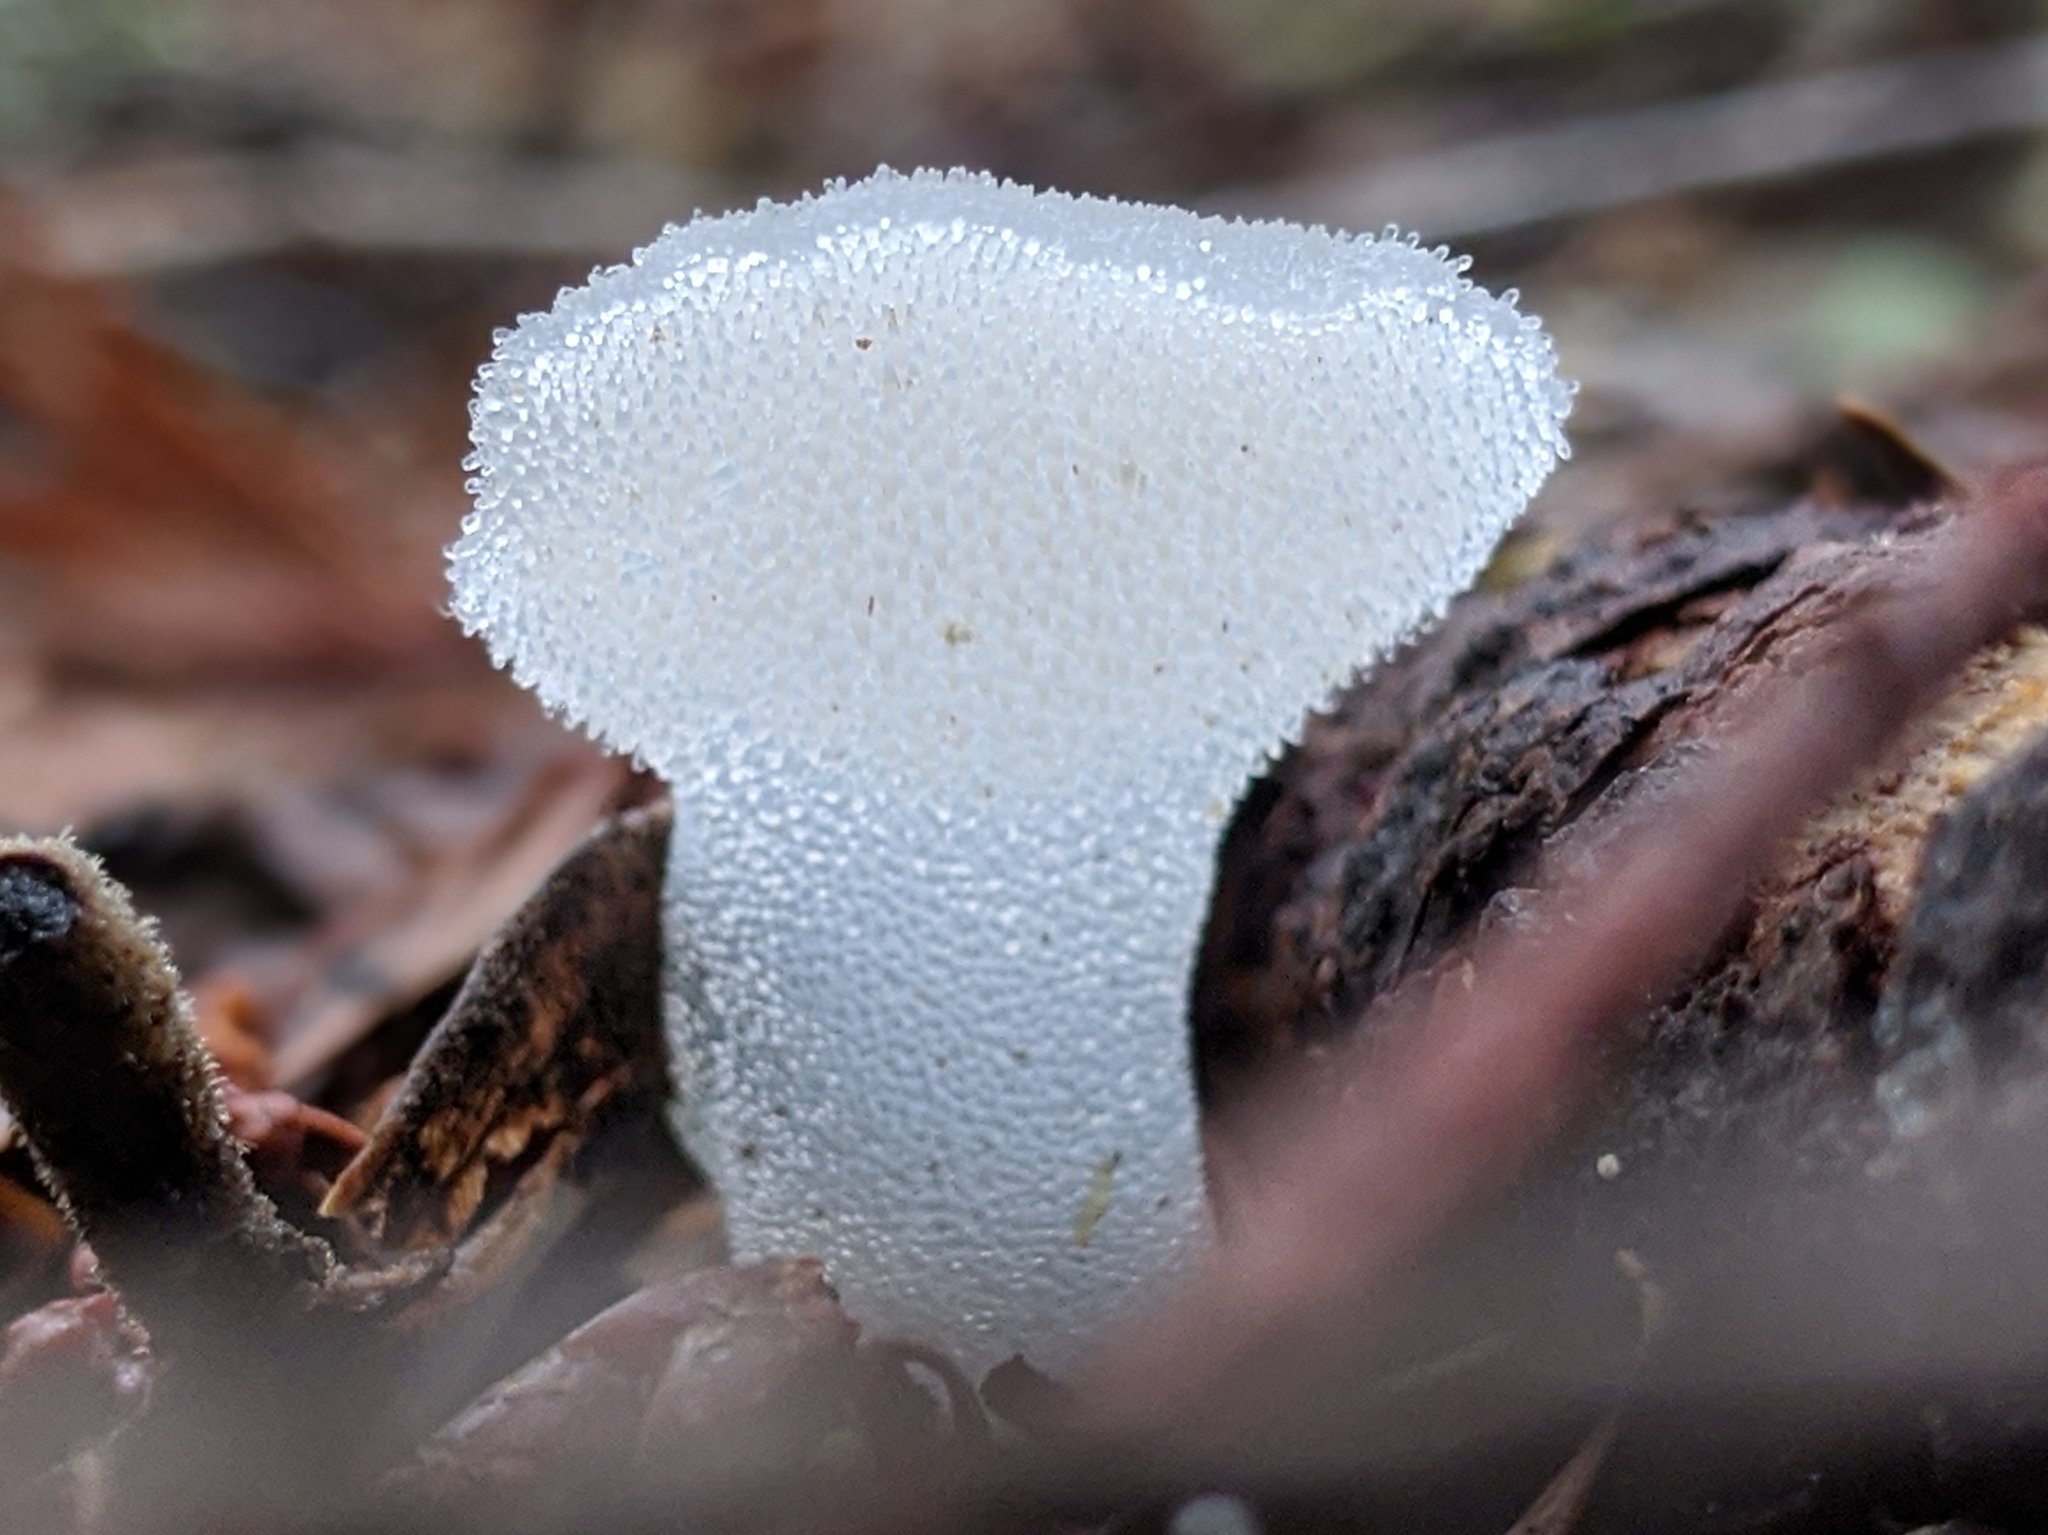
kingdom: Fungi
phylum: Basidiomycota
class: Agaricomycetes
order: Auriculariales
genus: Pseudohydnum
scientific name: Pseudohydnum gelatinosum
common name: Jelly tongue
